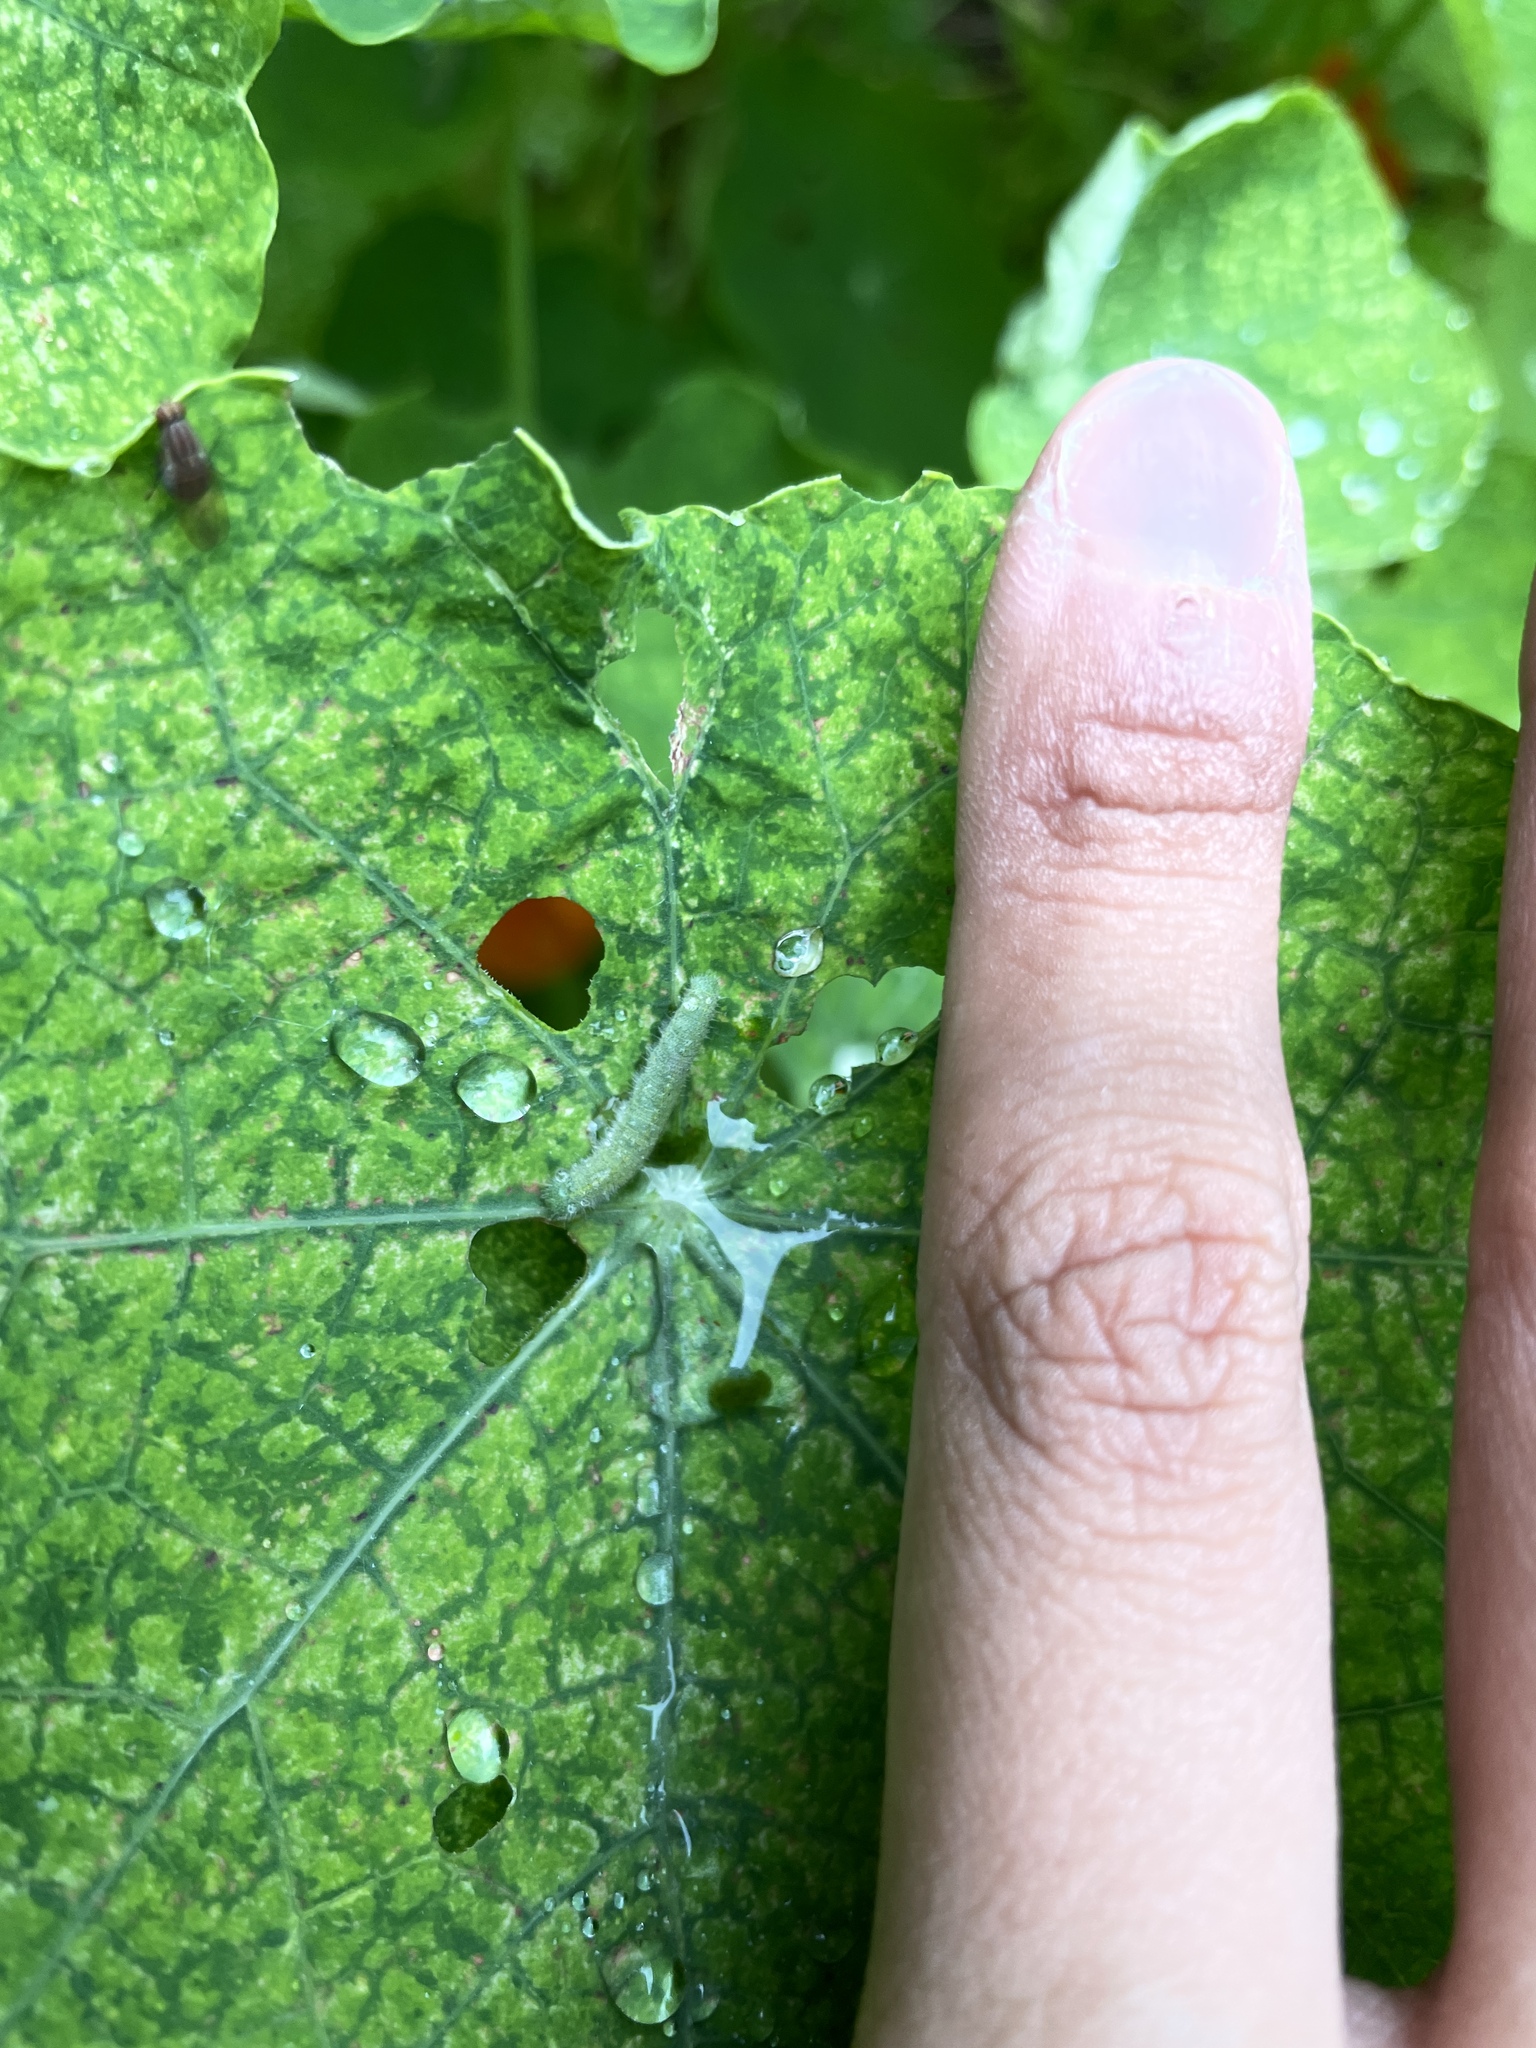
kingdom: Animalia
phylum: Arthropoda
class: Insecta
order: Lepidoptera
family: Pieridae
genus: Pieris
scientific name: Pieris rapae
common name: Small white
